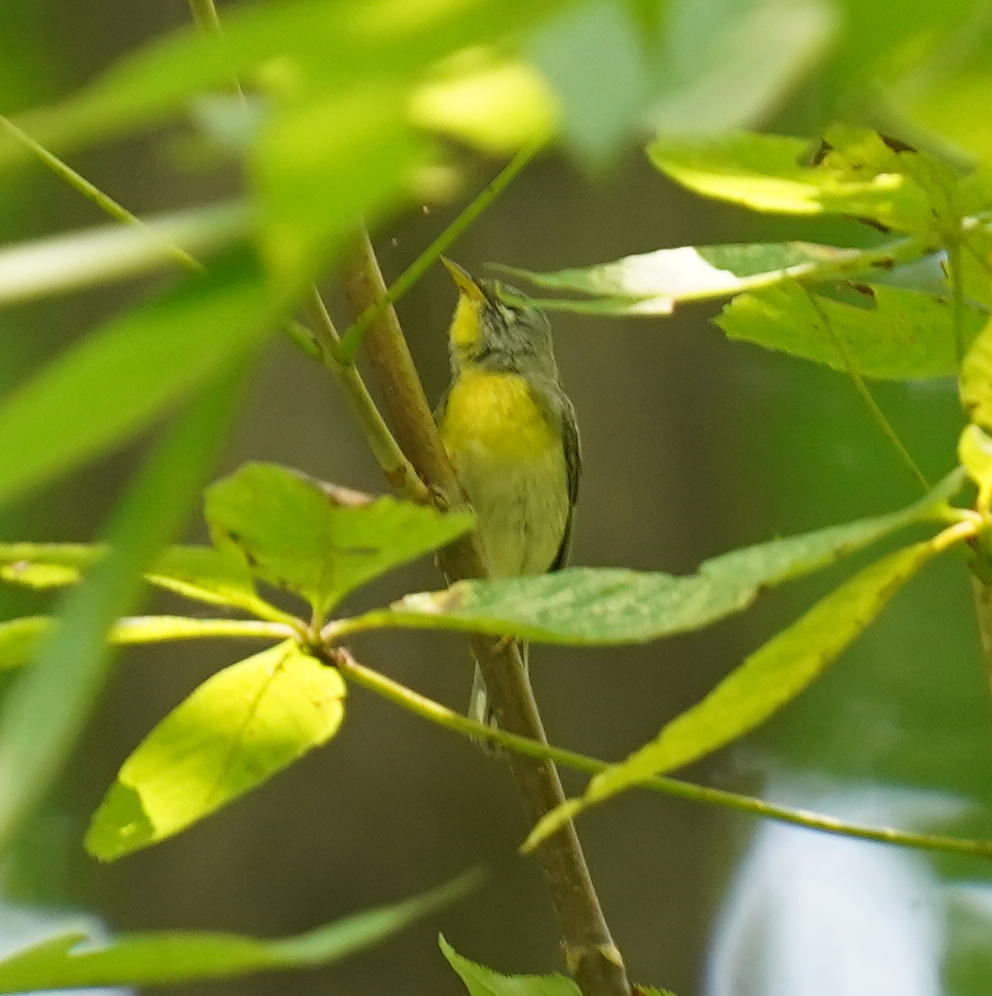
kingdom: Animalia
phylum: Chordata
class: Aves
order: Passeriformes
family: Parulidae
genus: Setophaga
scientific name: Setophaga americana
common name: Northern parula
